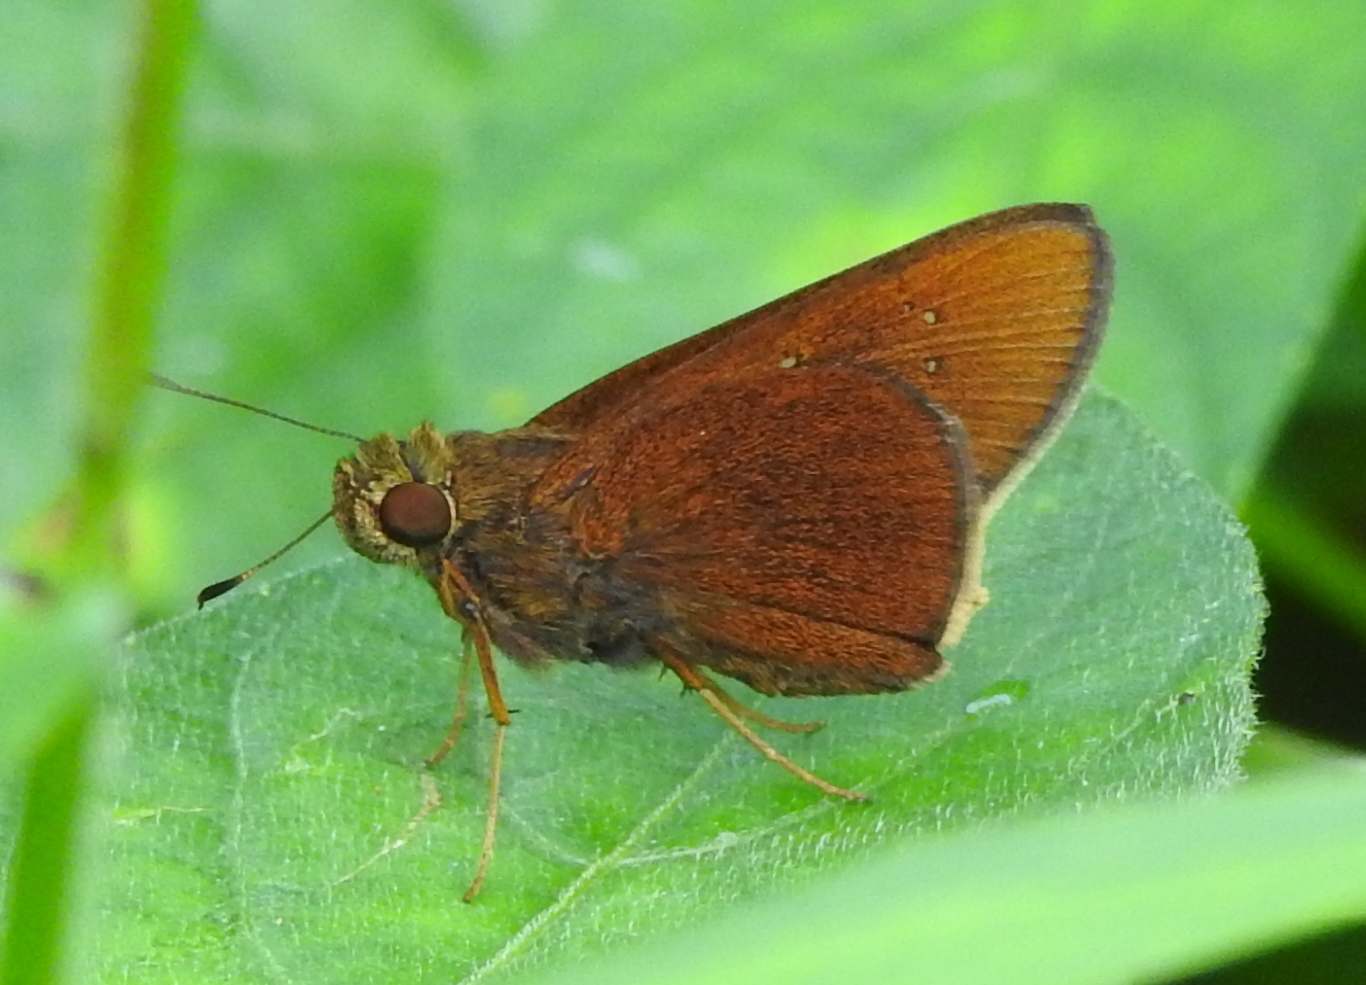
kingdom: Animalia
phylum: Arthropoda
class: Insecta
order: Lepidoptera
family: Hesperiidae
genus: Caltoris
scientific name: Caltoris cormasa
